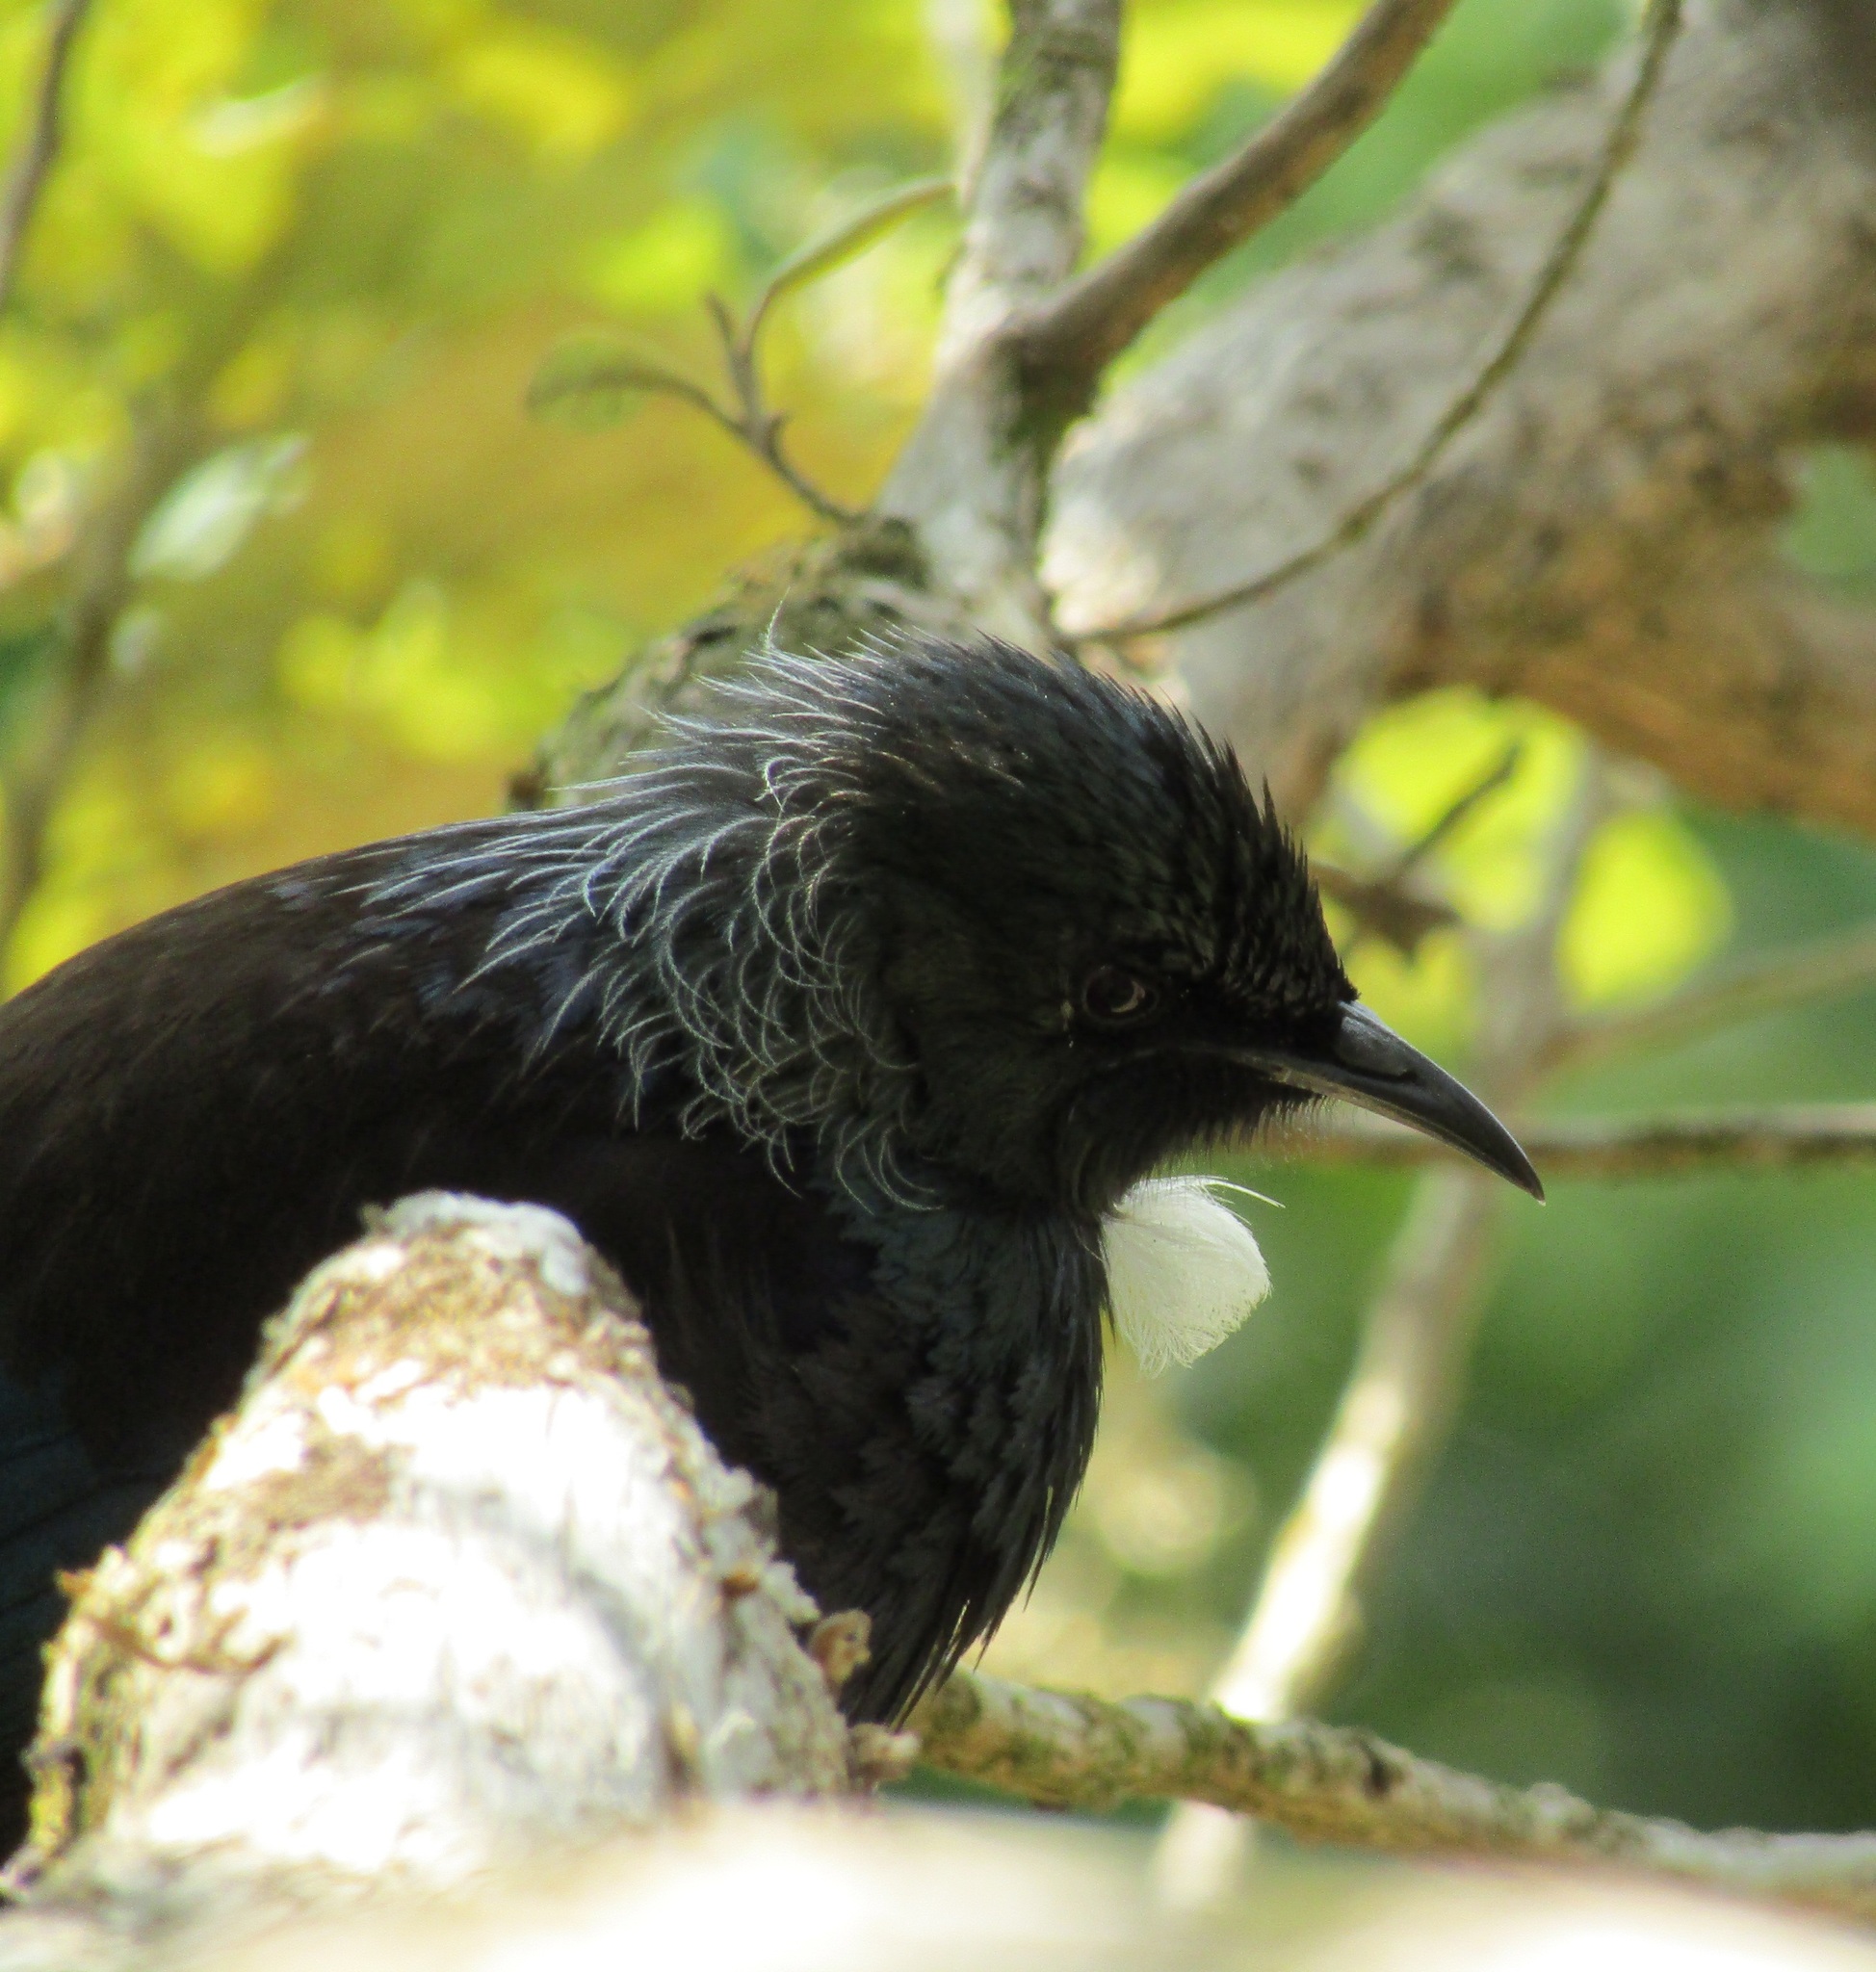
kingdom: Animalia
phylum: Chordata
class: Aves
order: Passeriformes
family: Meliphagidae
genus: Prosthemadera
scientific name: Prosthemadera novaeseelandiae
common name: Tui
